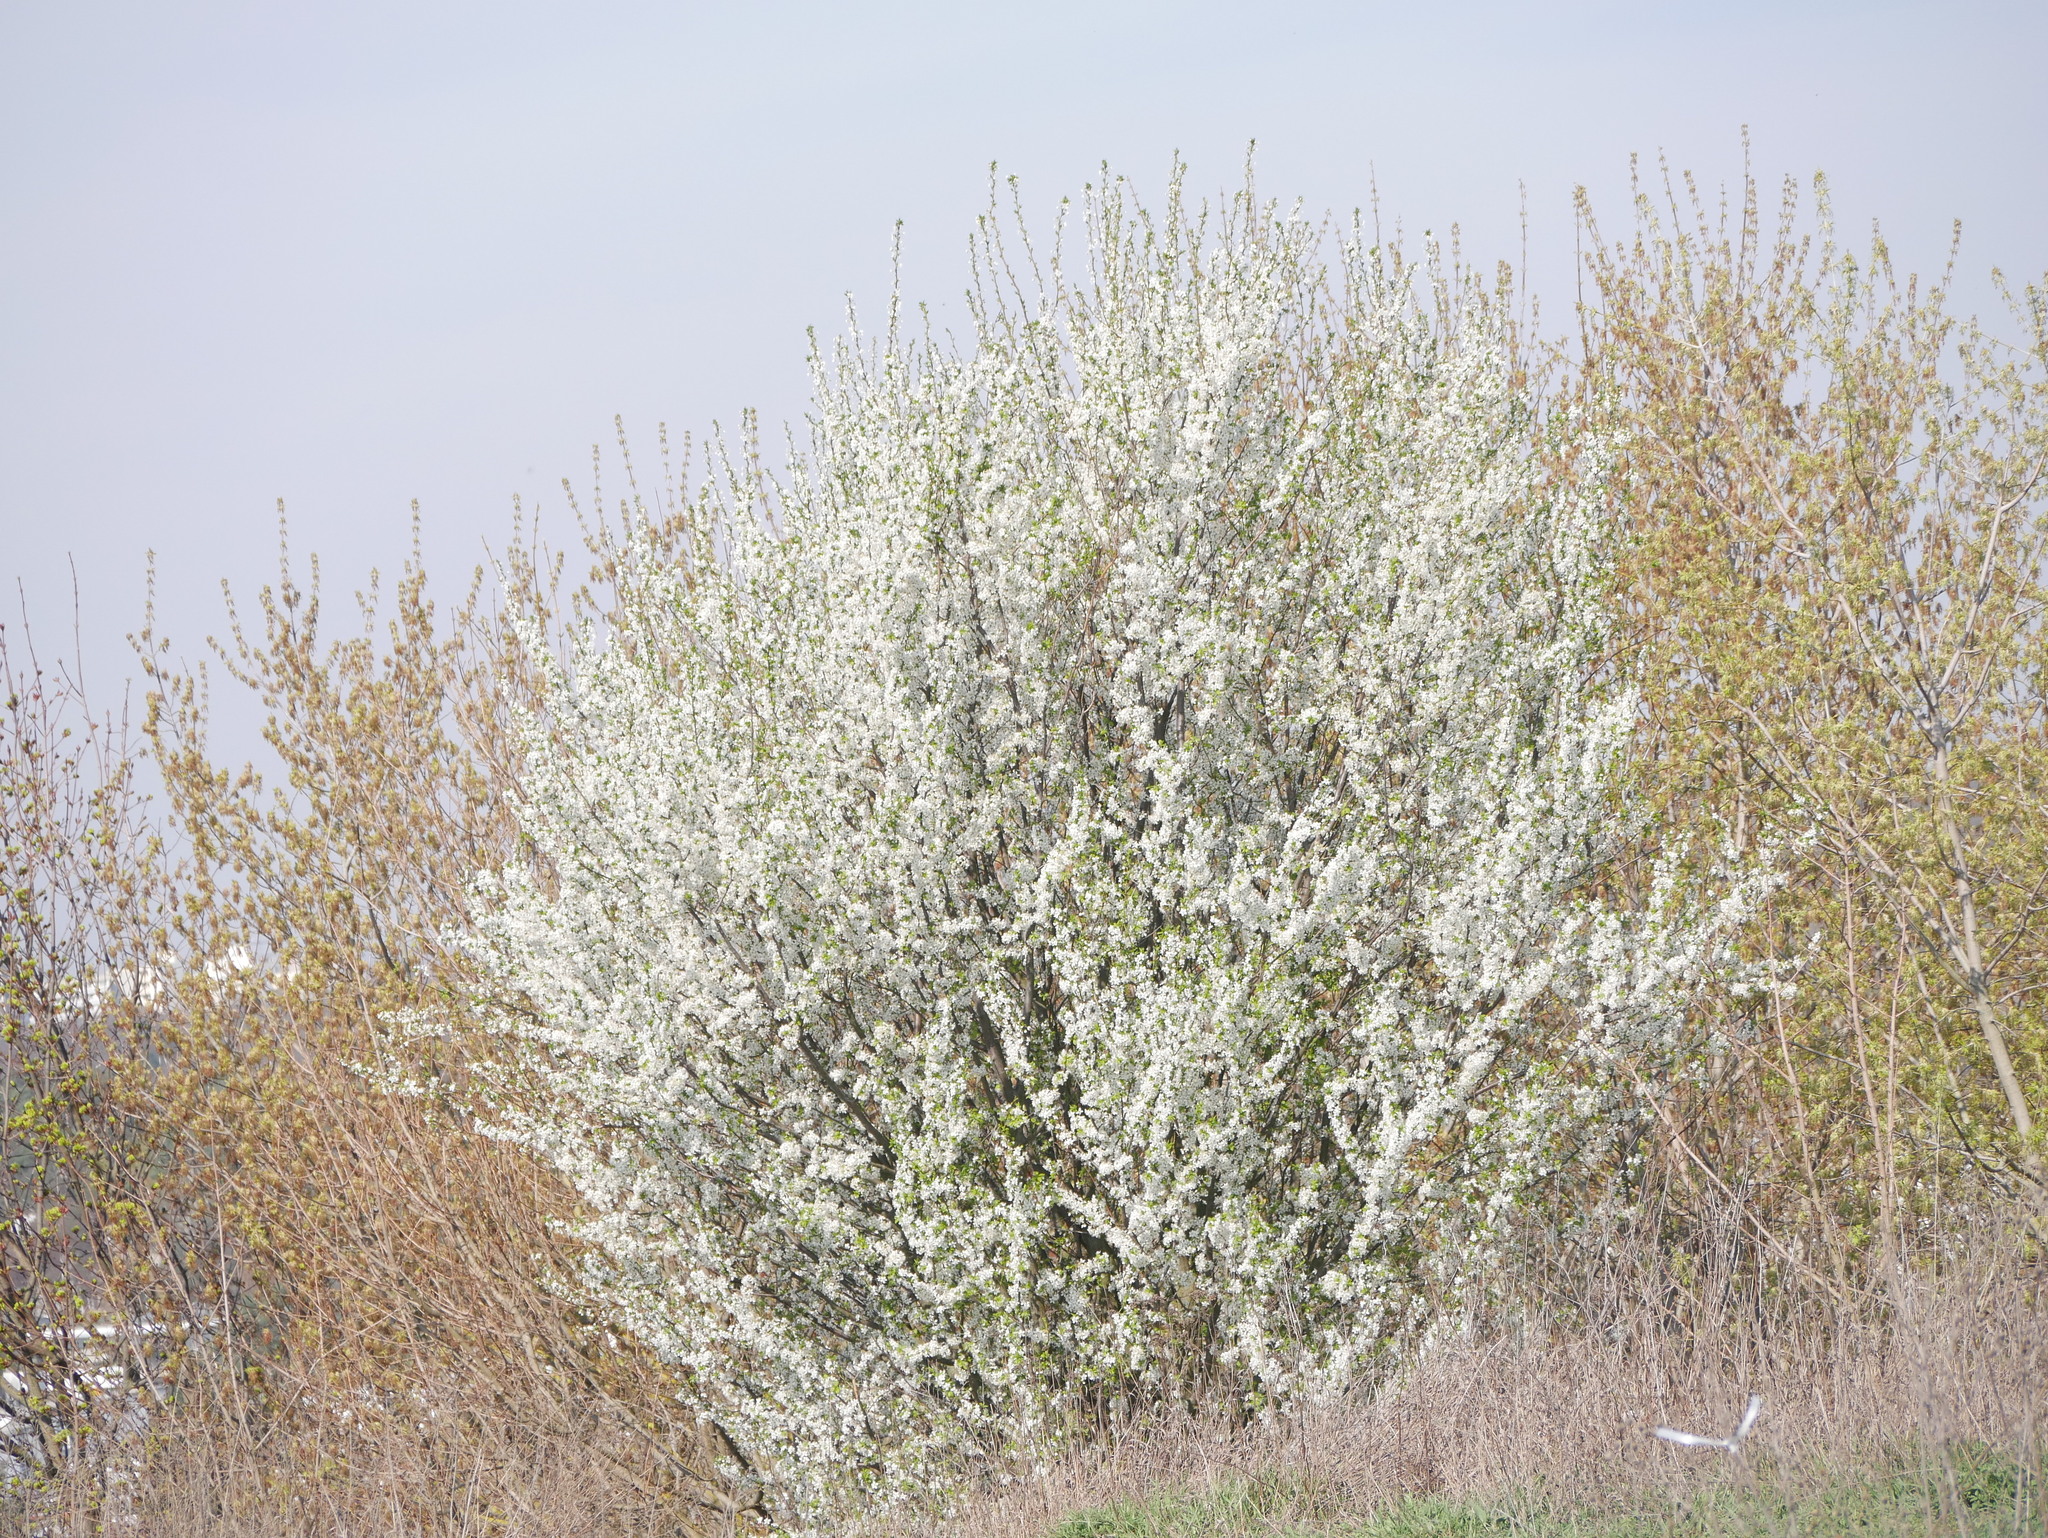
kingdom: Plantae
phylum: Tracheophyta
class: Magnoliopsida
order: Rosales
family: Rosaceae
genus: Prunus
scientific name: Prunus cerasifera
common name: Cherry plum
